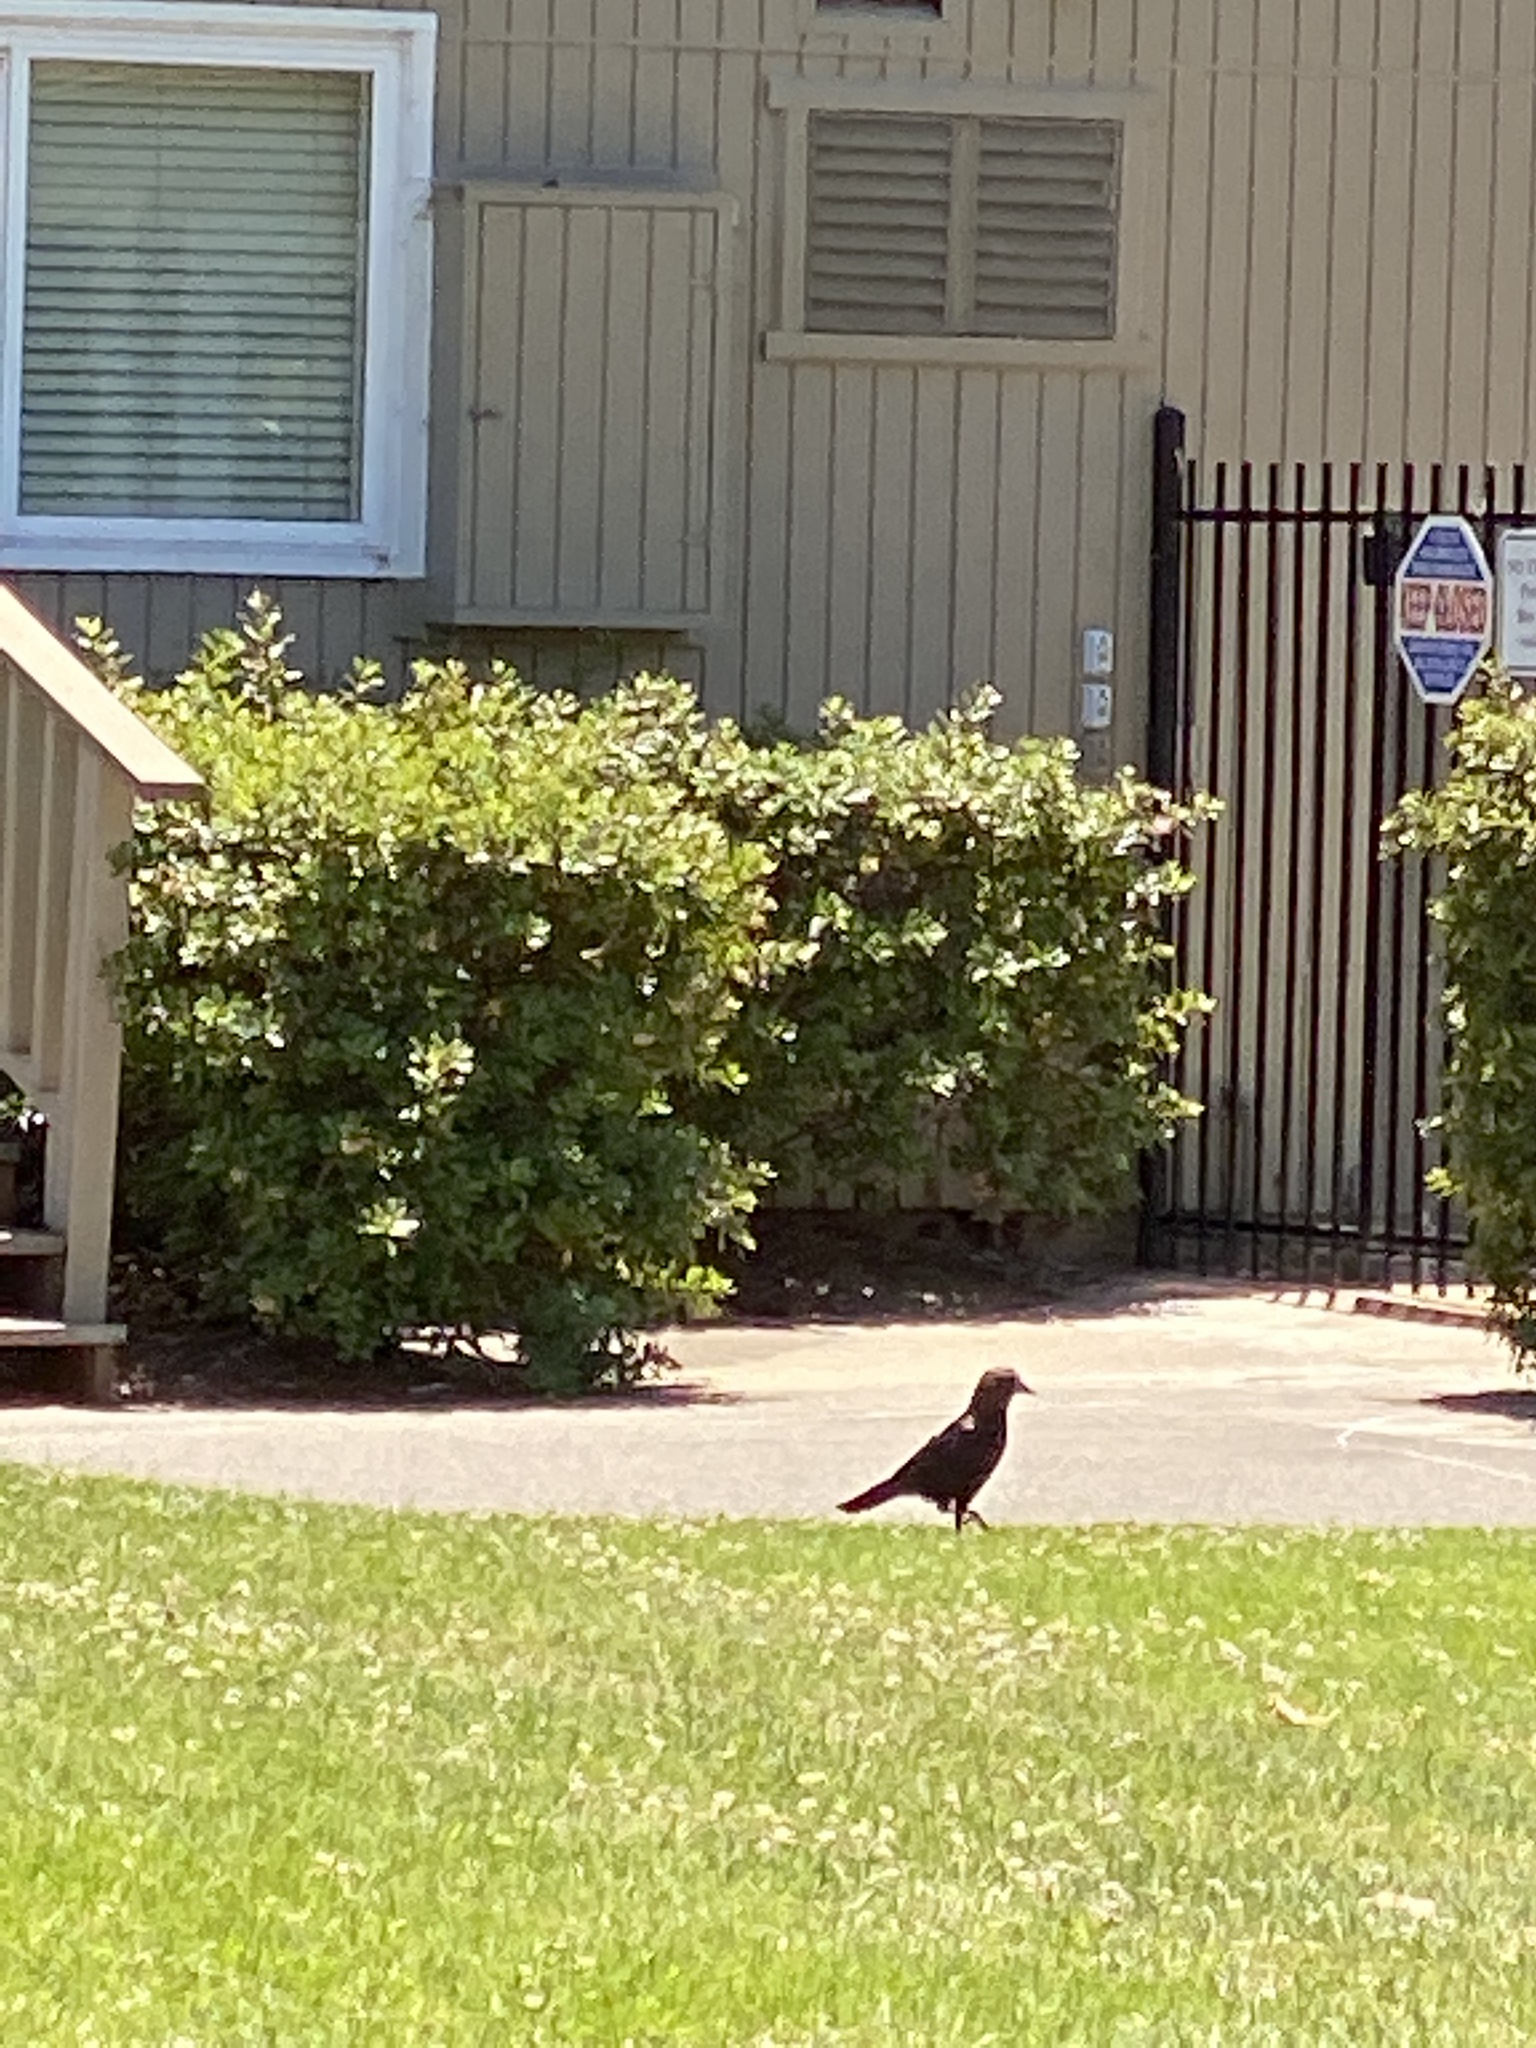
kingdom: Animalia
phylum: Chordata
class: Aves
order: Passeriformes
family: Corvidae
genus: Corvus
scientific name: Corvus brachyrhynchos
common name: American crow
